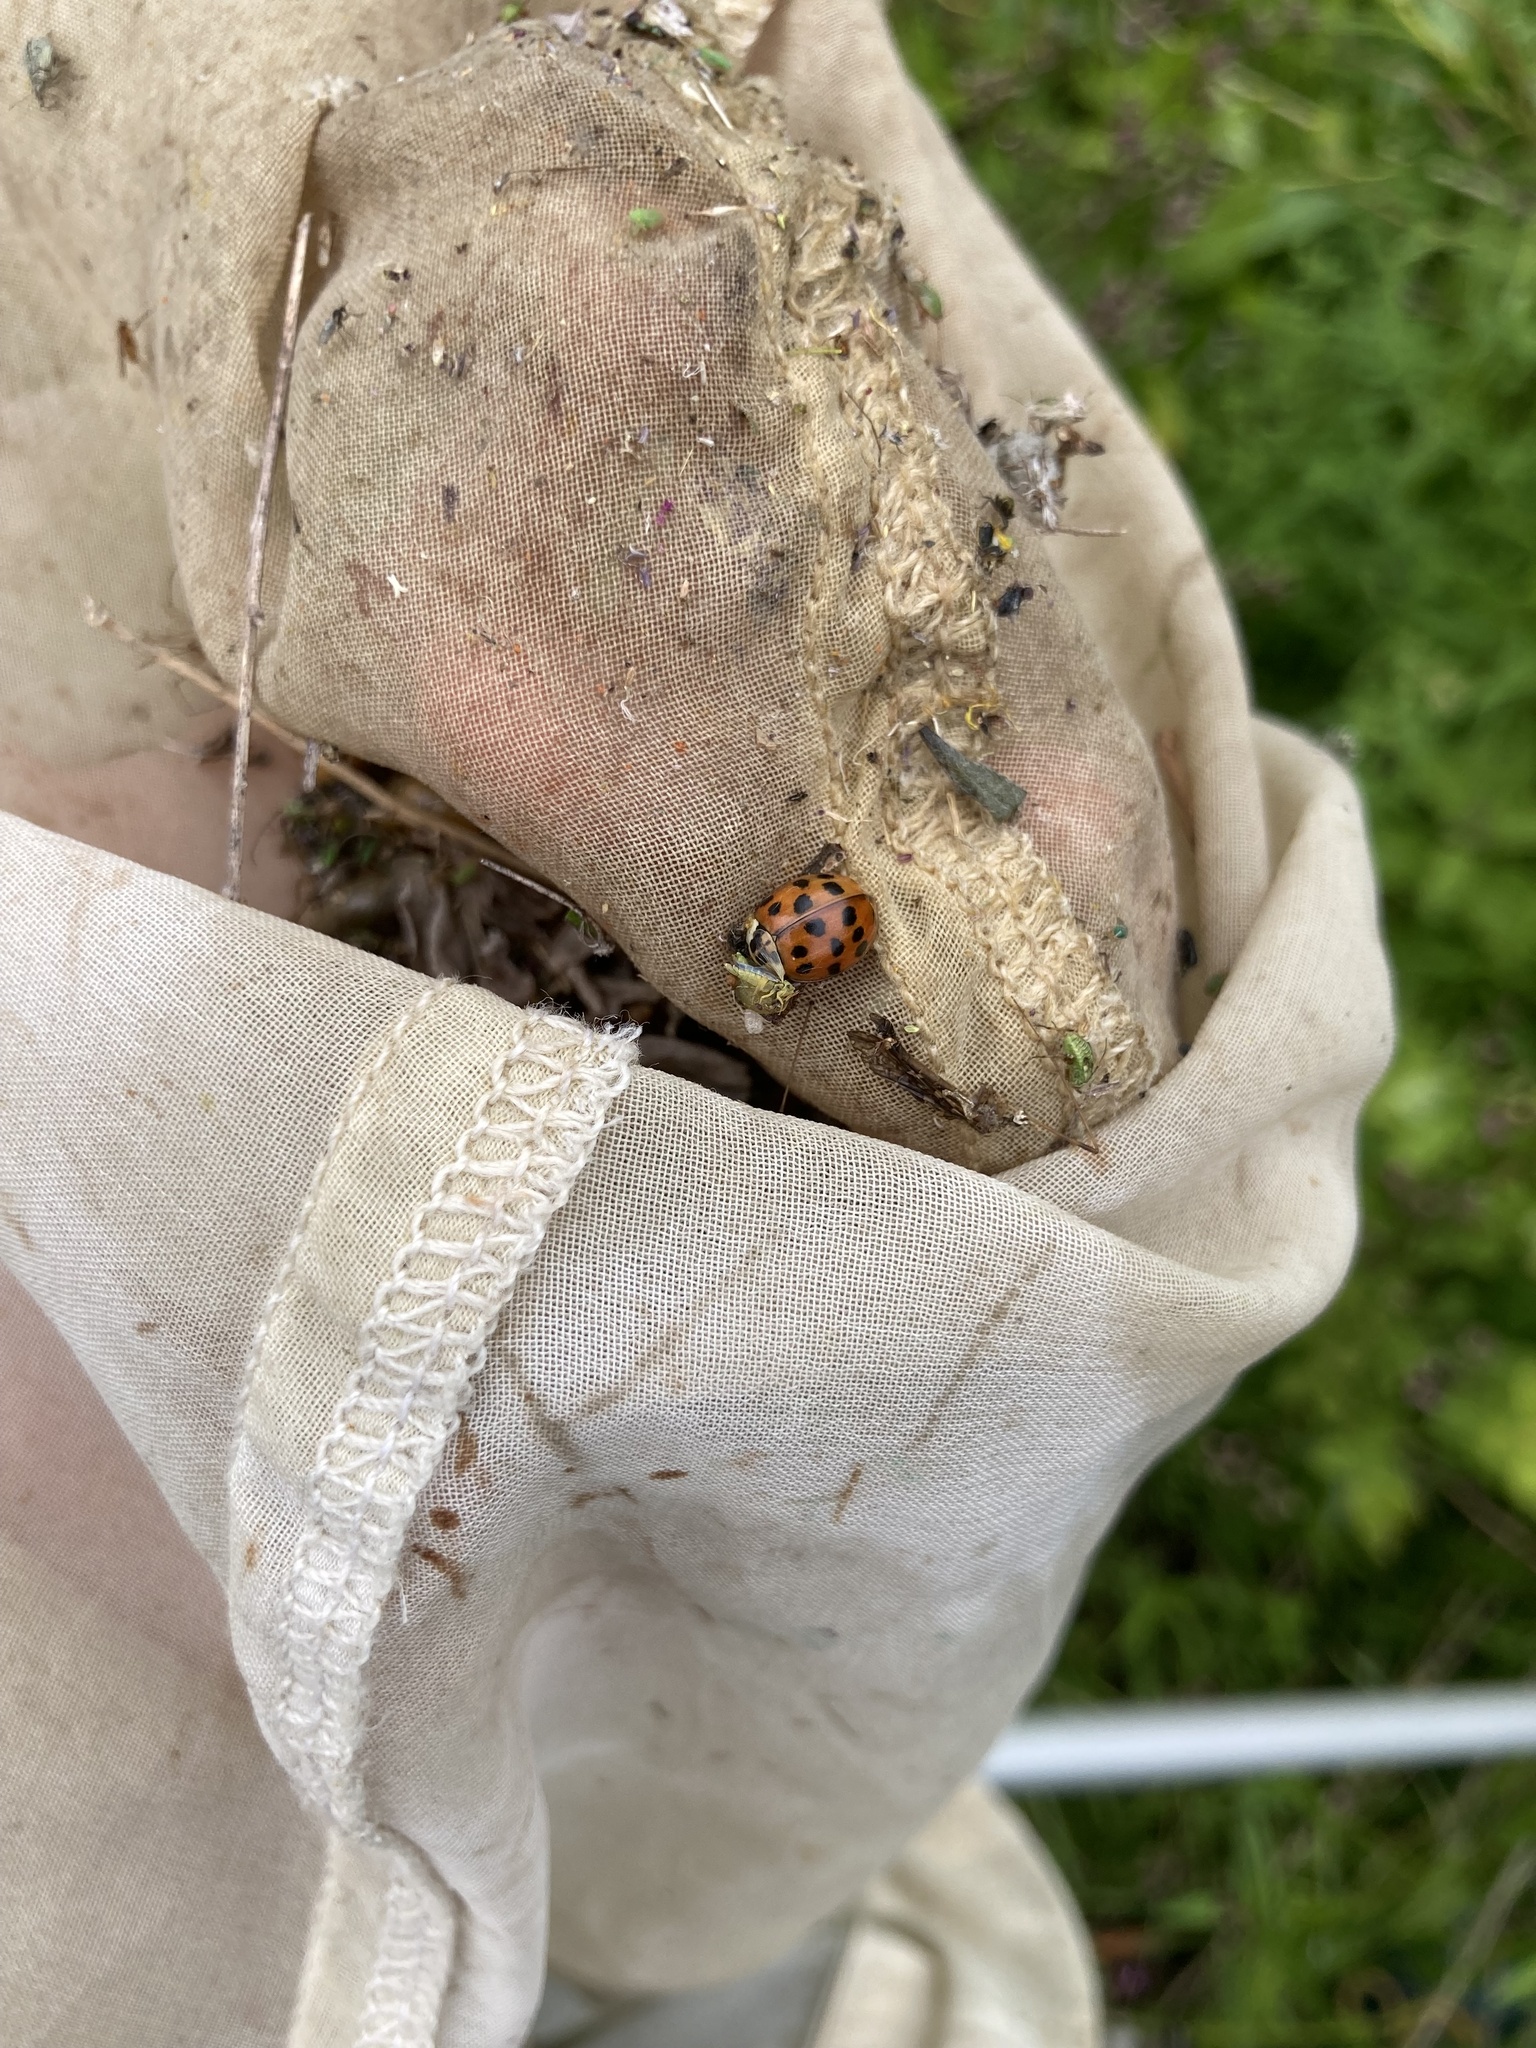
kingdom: Animalia
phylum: Arthropoda
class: Insecta
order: Coleoptera
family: Coccinellidae
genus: Harmonia
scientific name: Harmonia axyridis
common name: Harlequin ladybird
